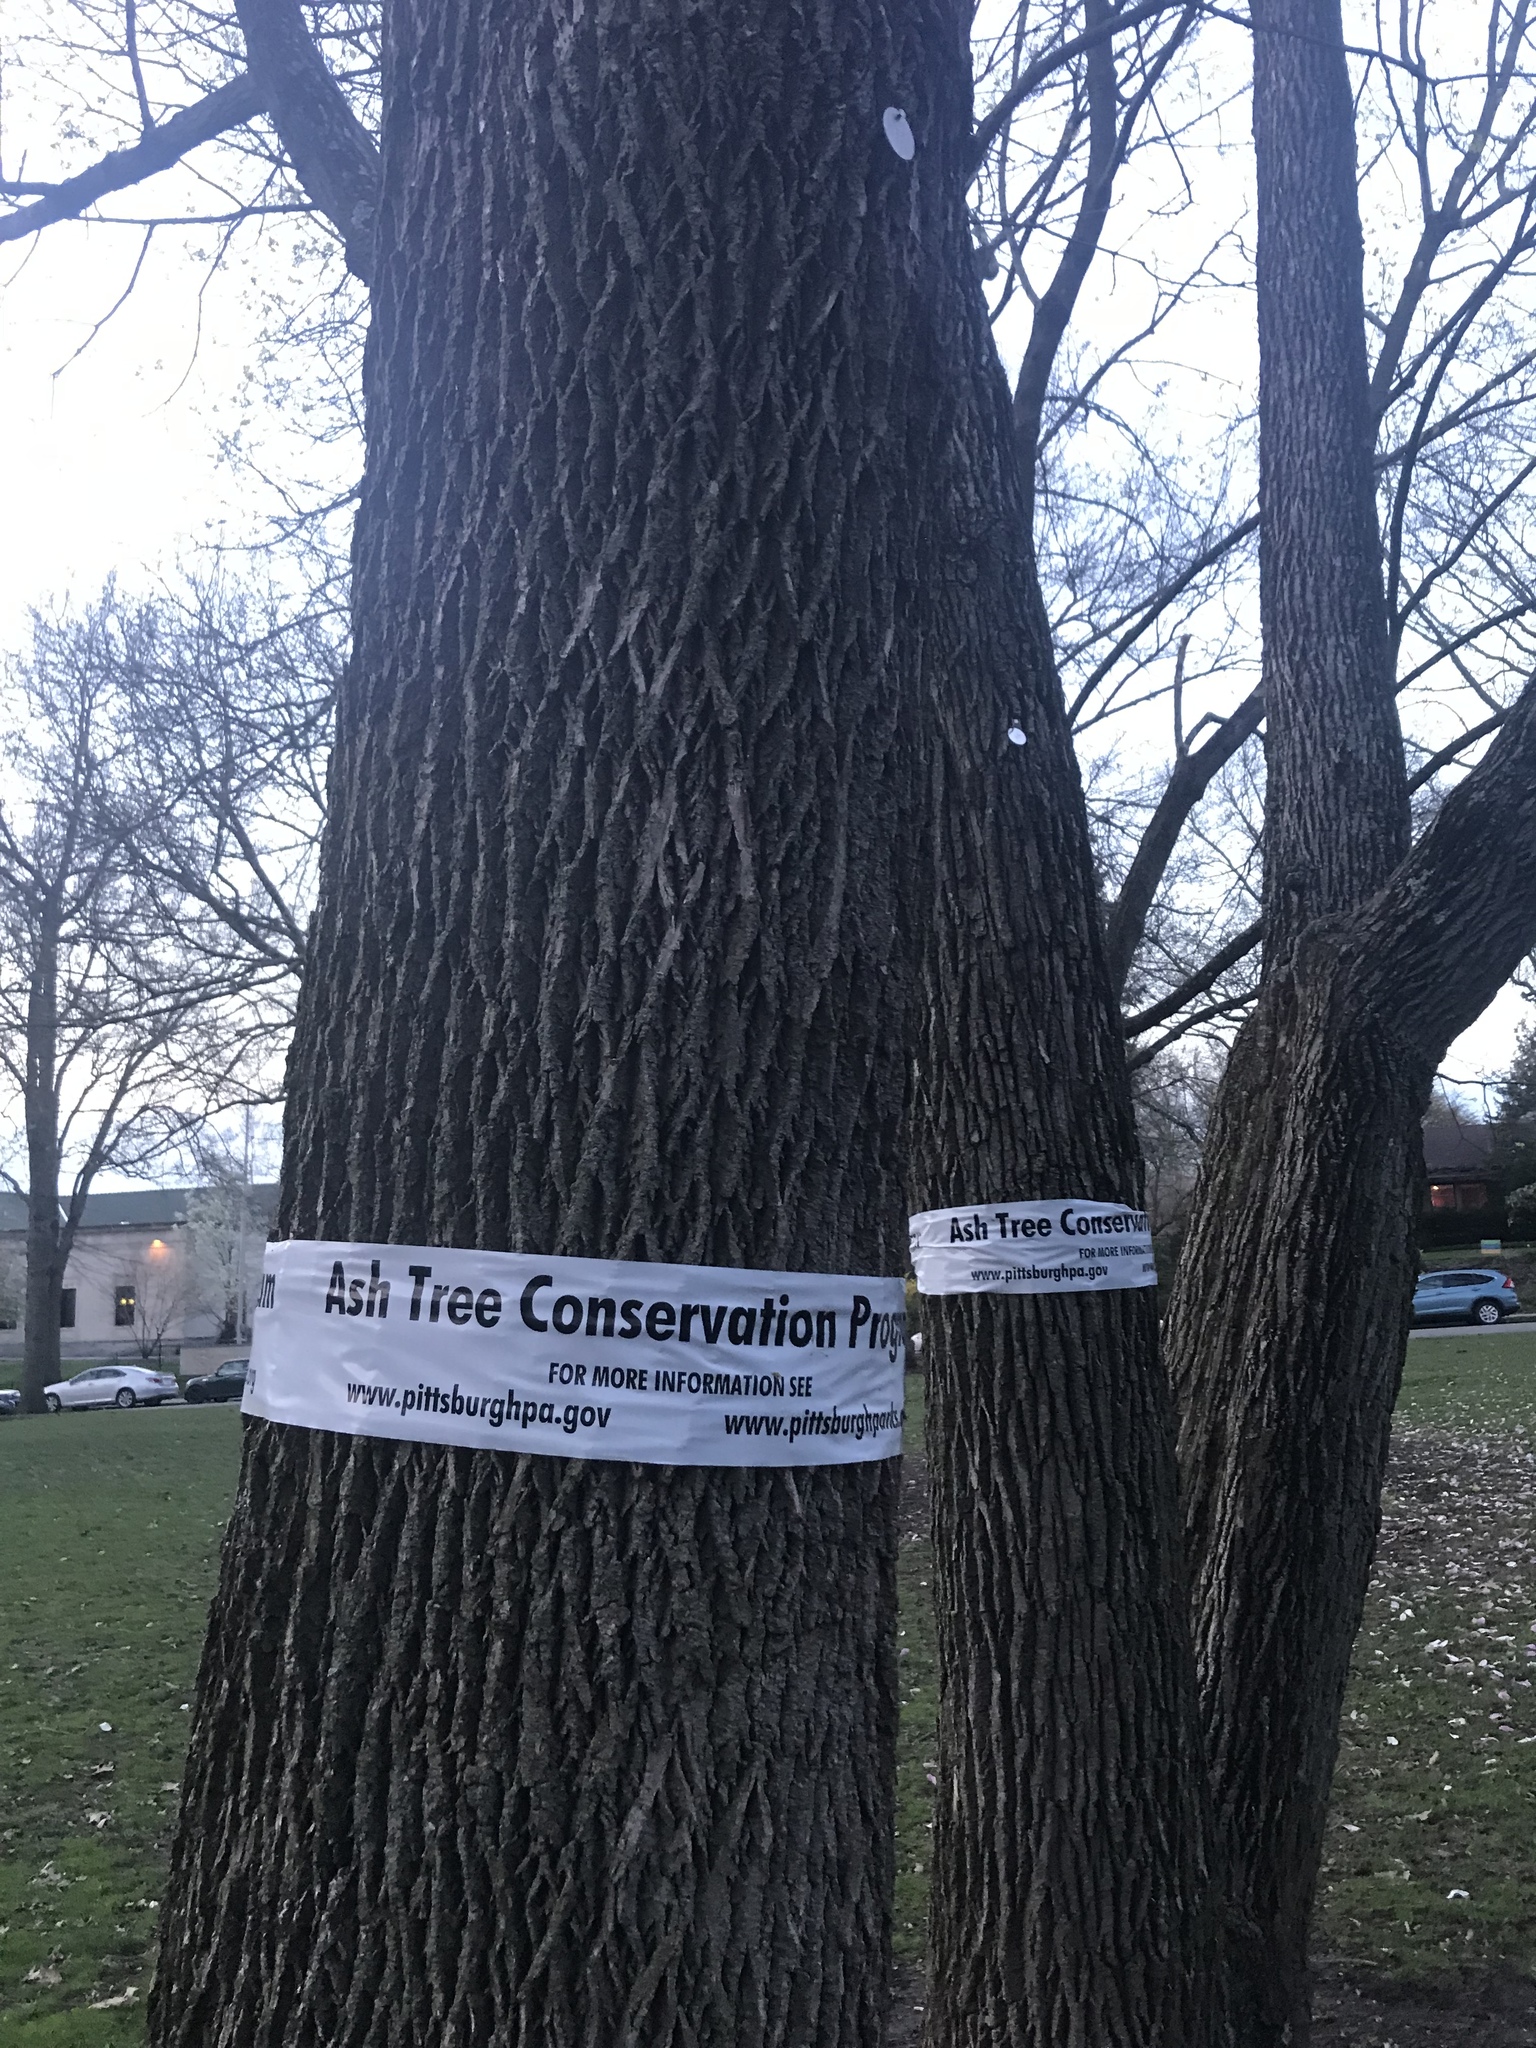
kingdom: Plantae
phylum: Tracheophyta
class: Magnoliopsida
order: Lamiales
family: Oleaceae
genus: Fraxinus
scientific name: Fraxinus pennsylvanica
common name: Green ash
